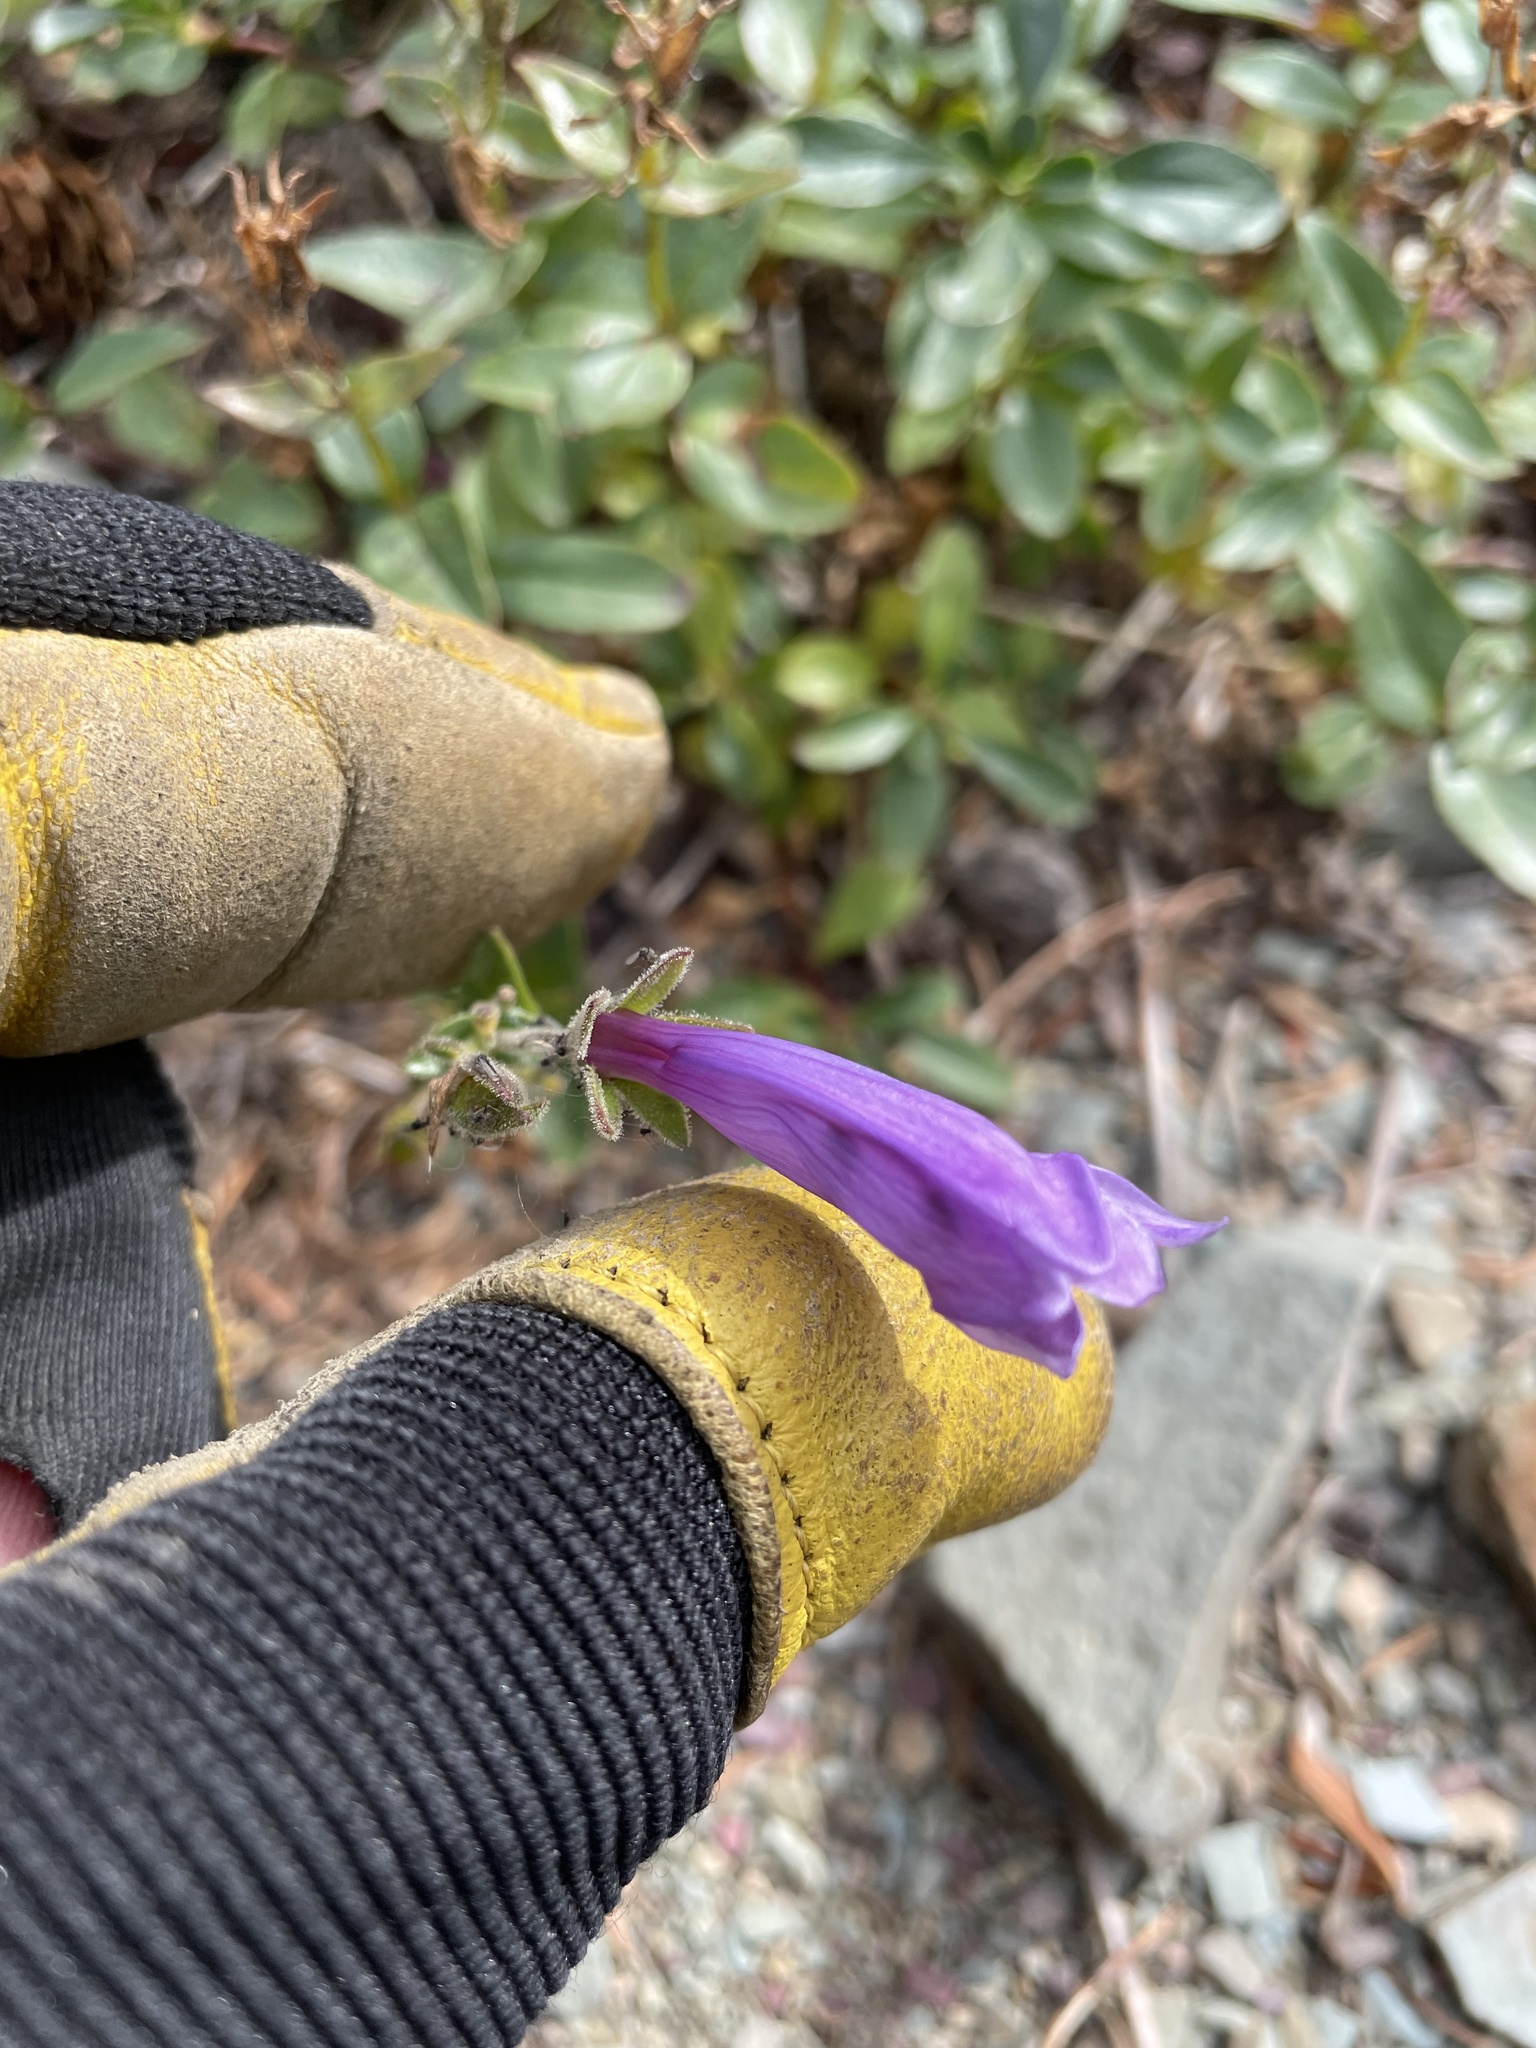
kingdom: Plantae
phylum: Tracheophyta
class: Magnoliopsida
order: Lamiales
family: Plantaginaceae
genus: Penstemon
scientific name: Penstemon ellipticus
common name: Alpine beardtongue
